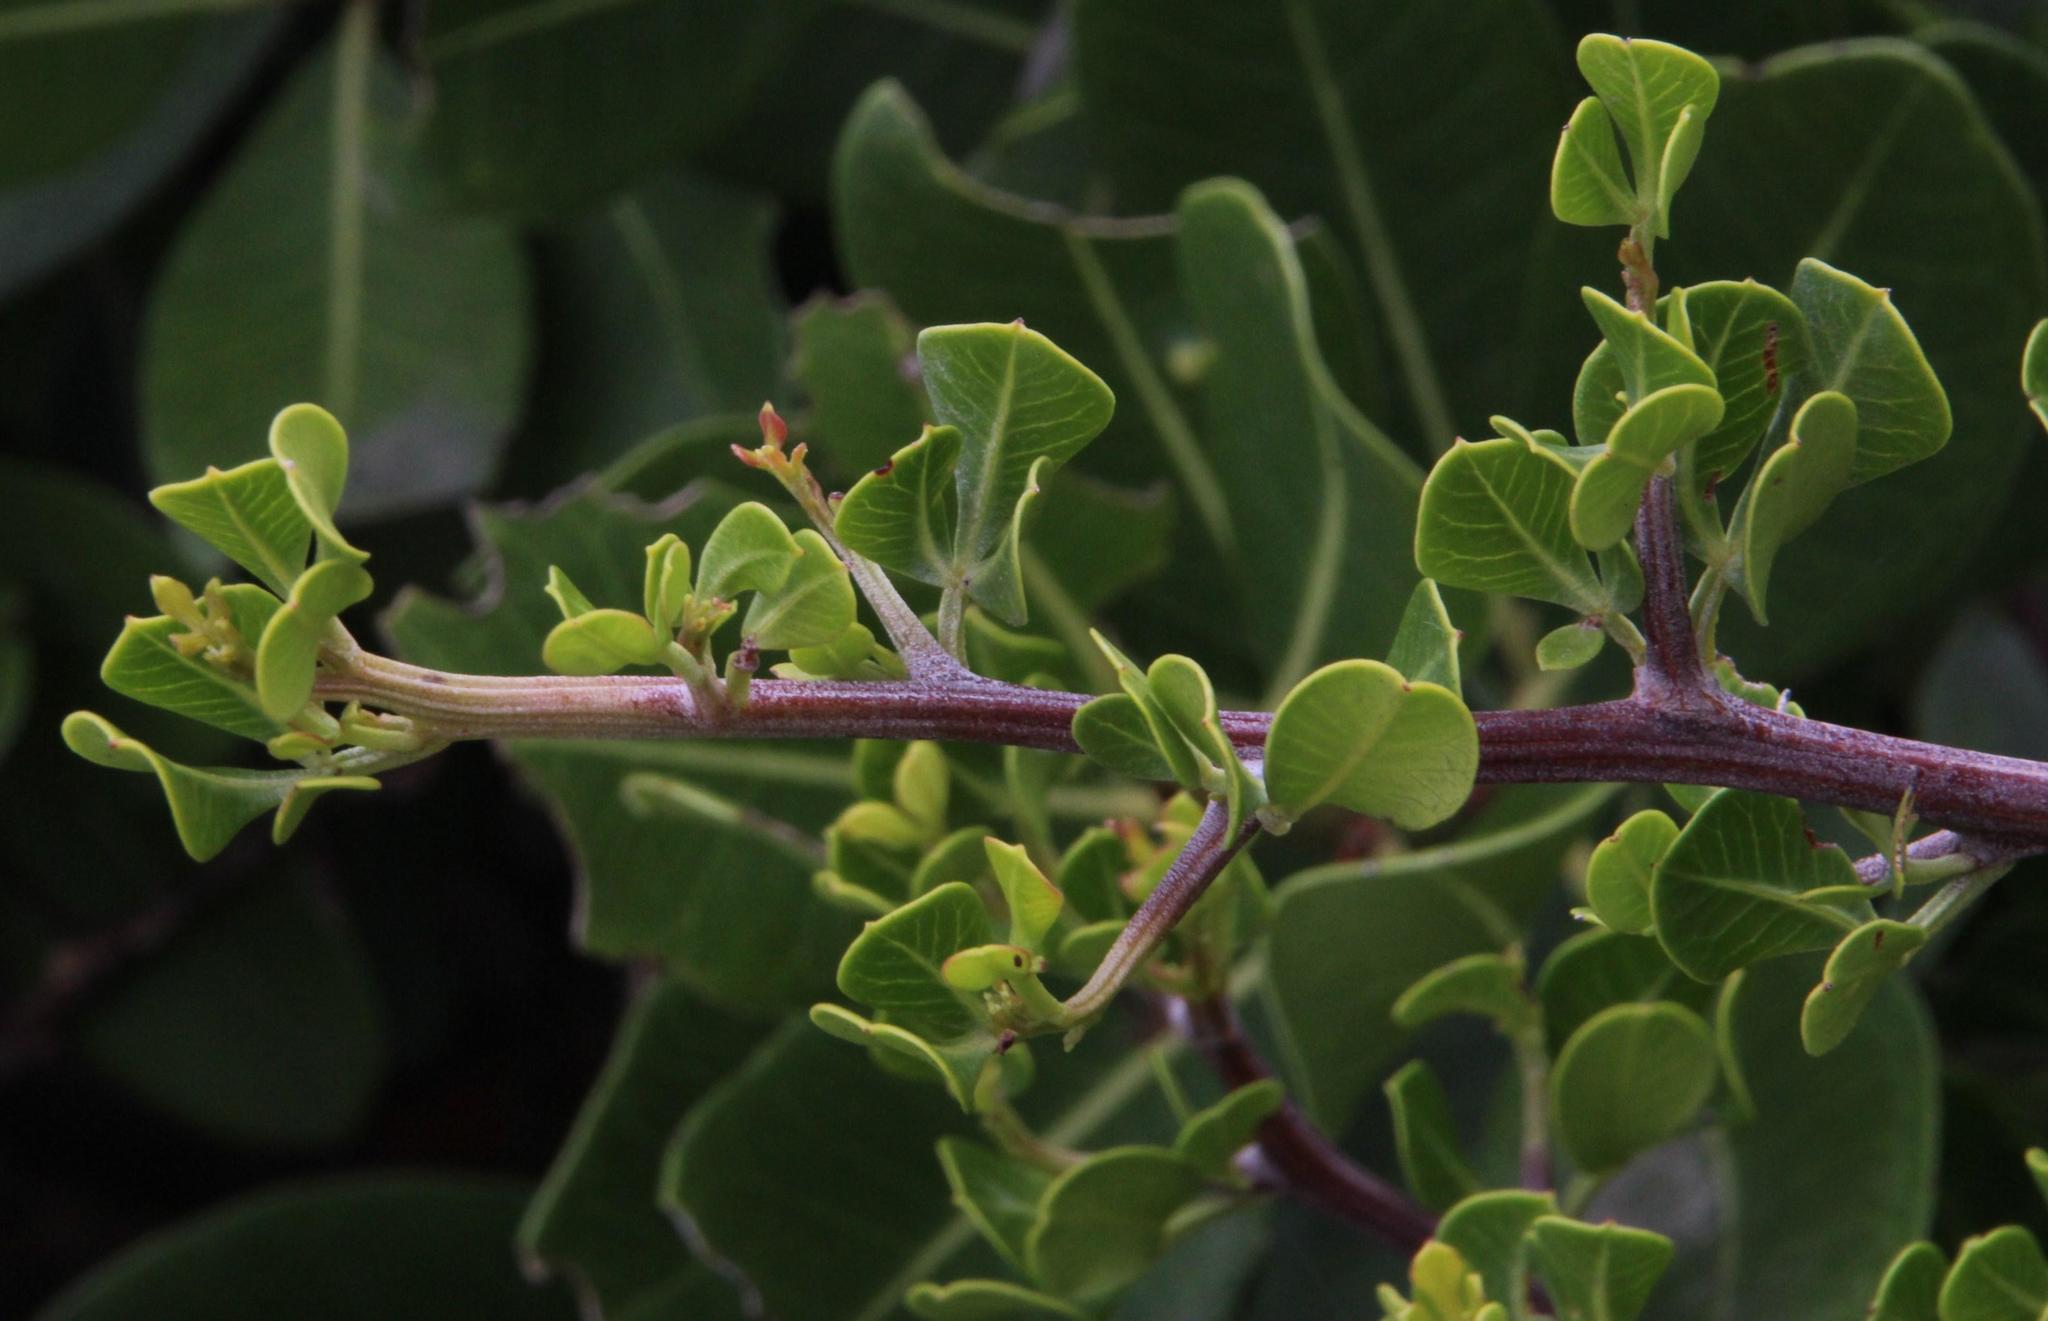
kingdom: Plantae
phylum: Tracheophyta
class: Magnoliopsida
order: Sapindales
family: Anacardiaceae
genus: Searsia
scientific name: Searsia glauca
